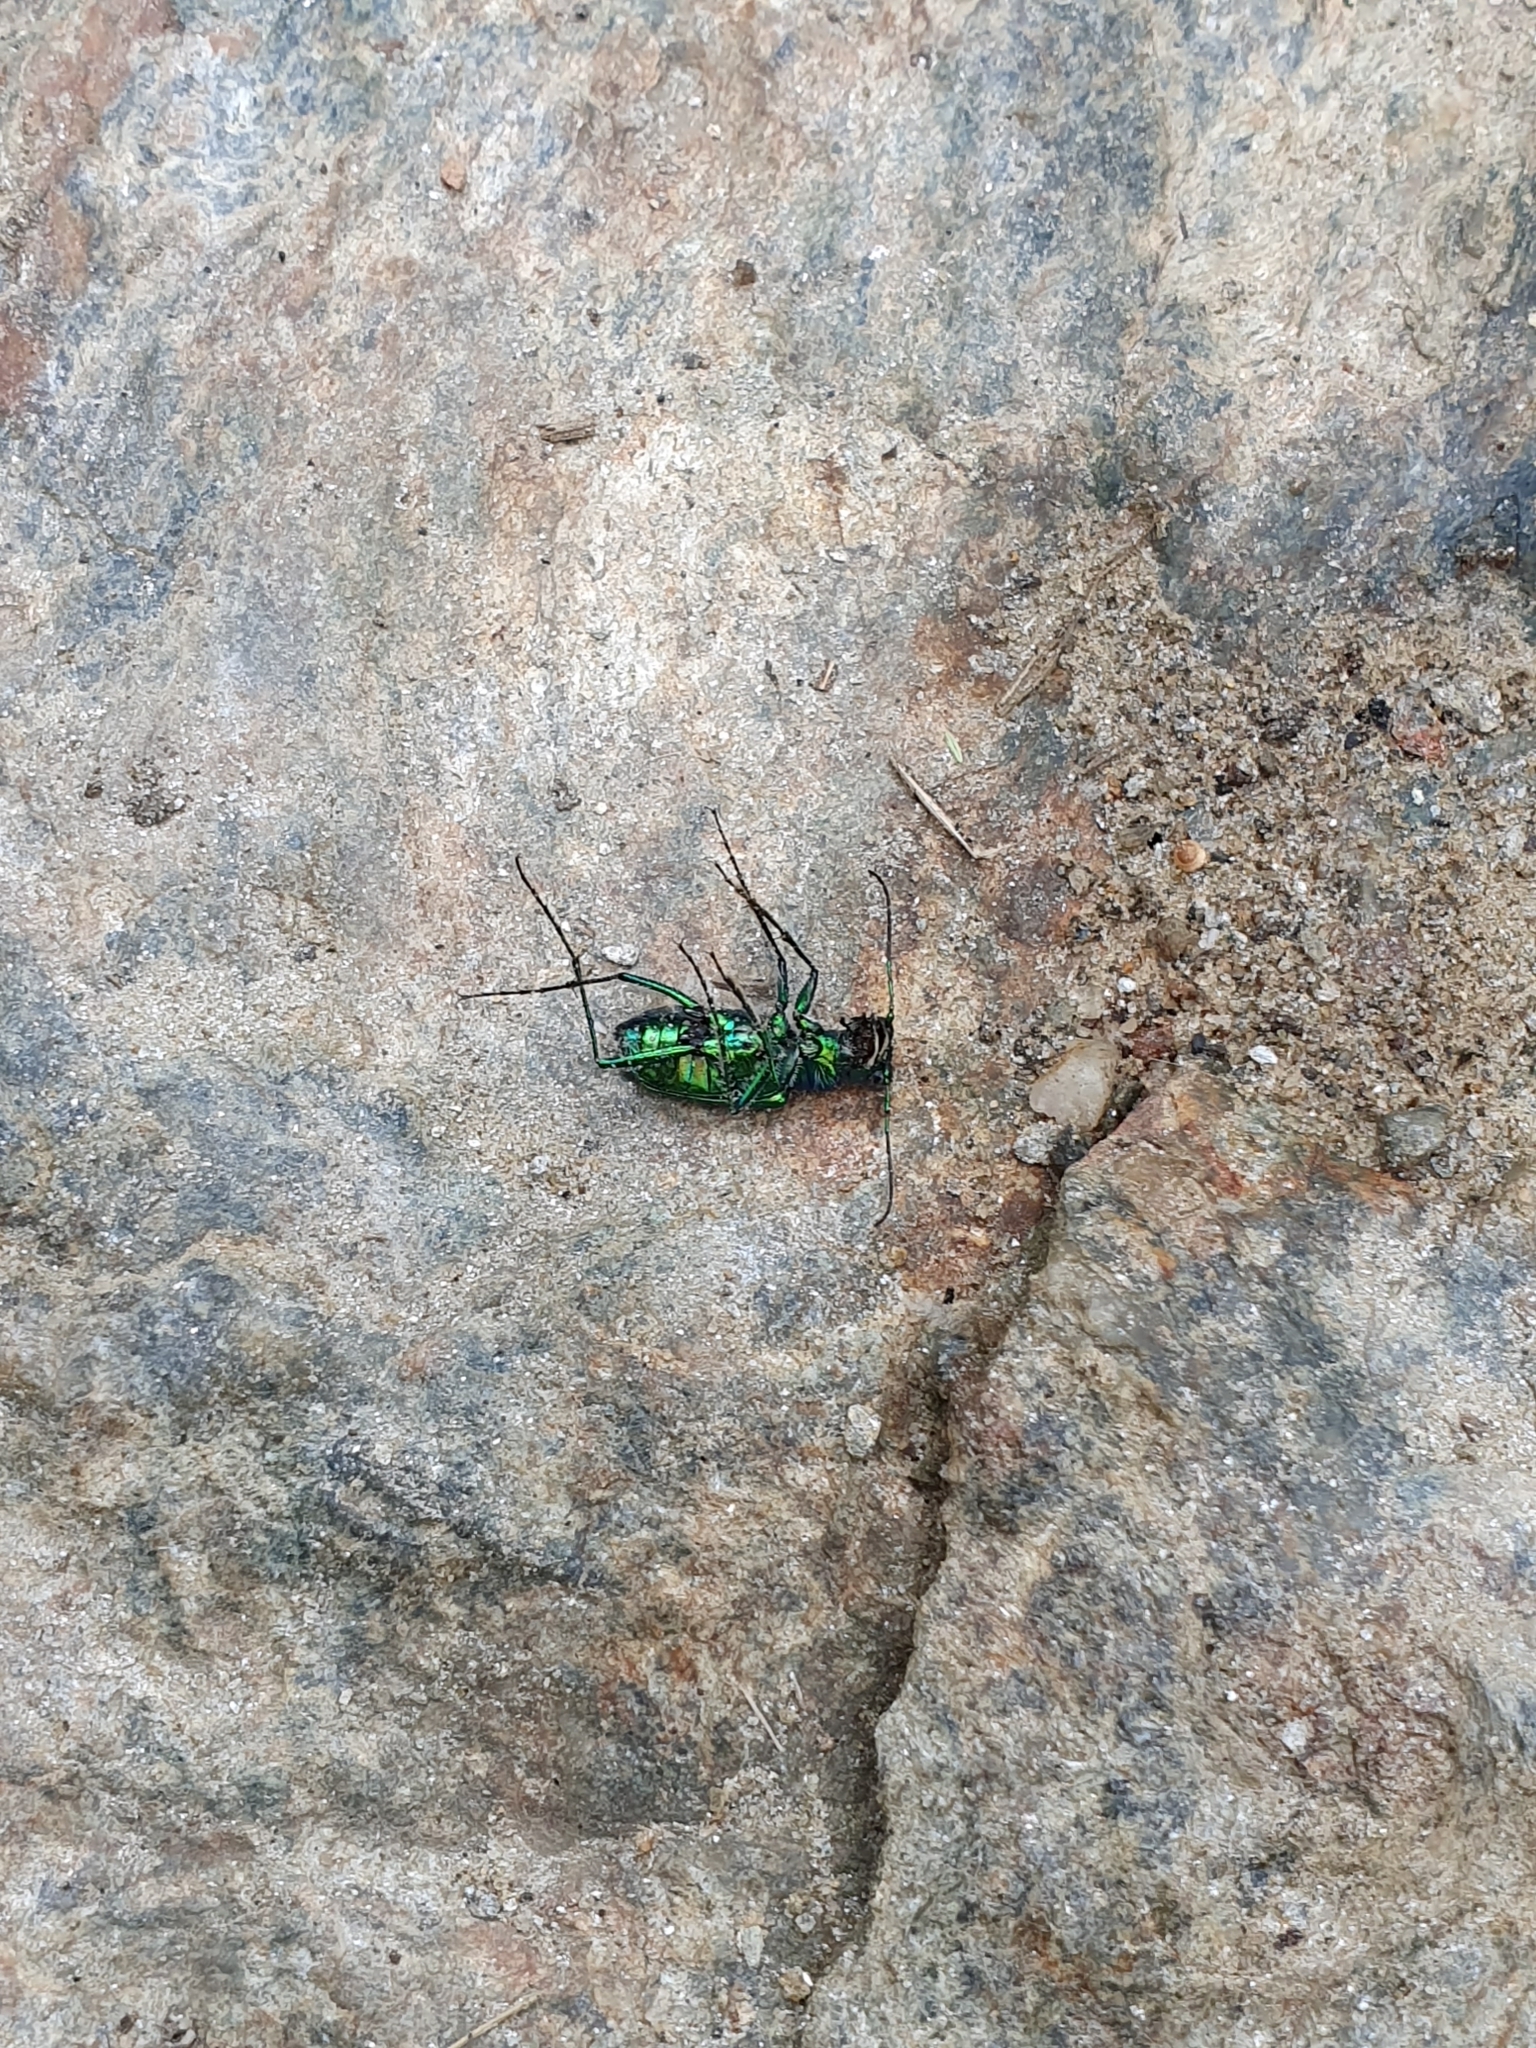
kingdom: Animalia
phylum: Arthropoda
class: Insecta
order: Coleoptera
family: Carabidae
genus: Cicindela
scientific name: Cicindela sexguttata
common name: Six-spotted tiger beetle
